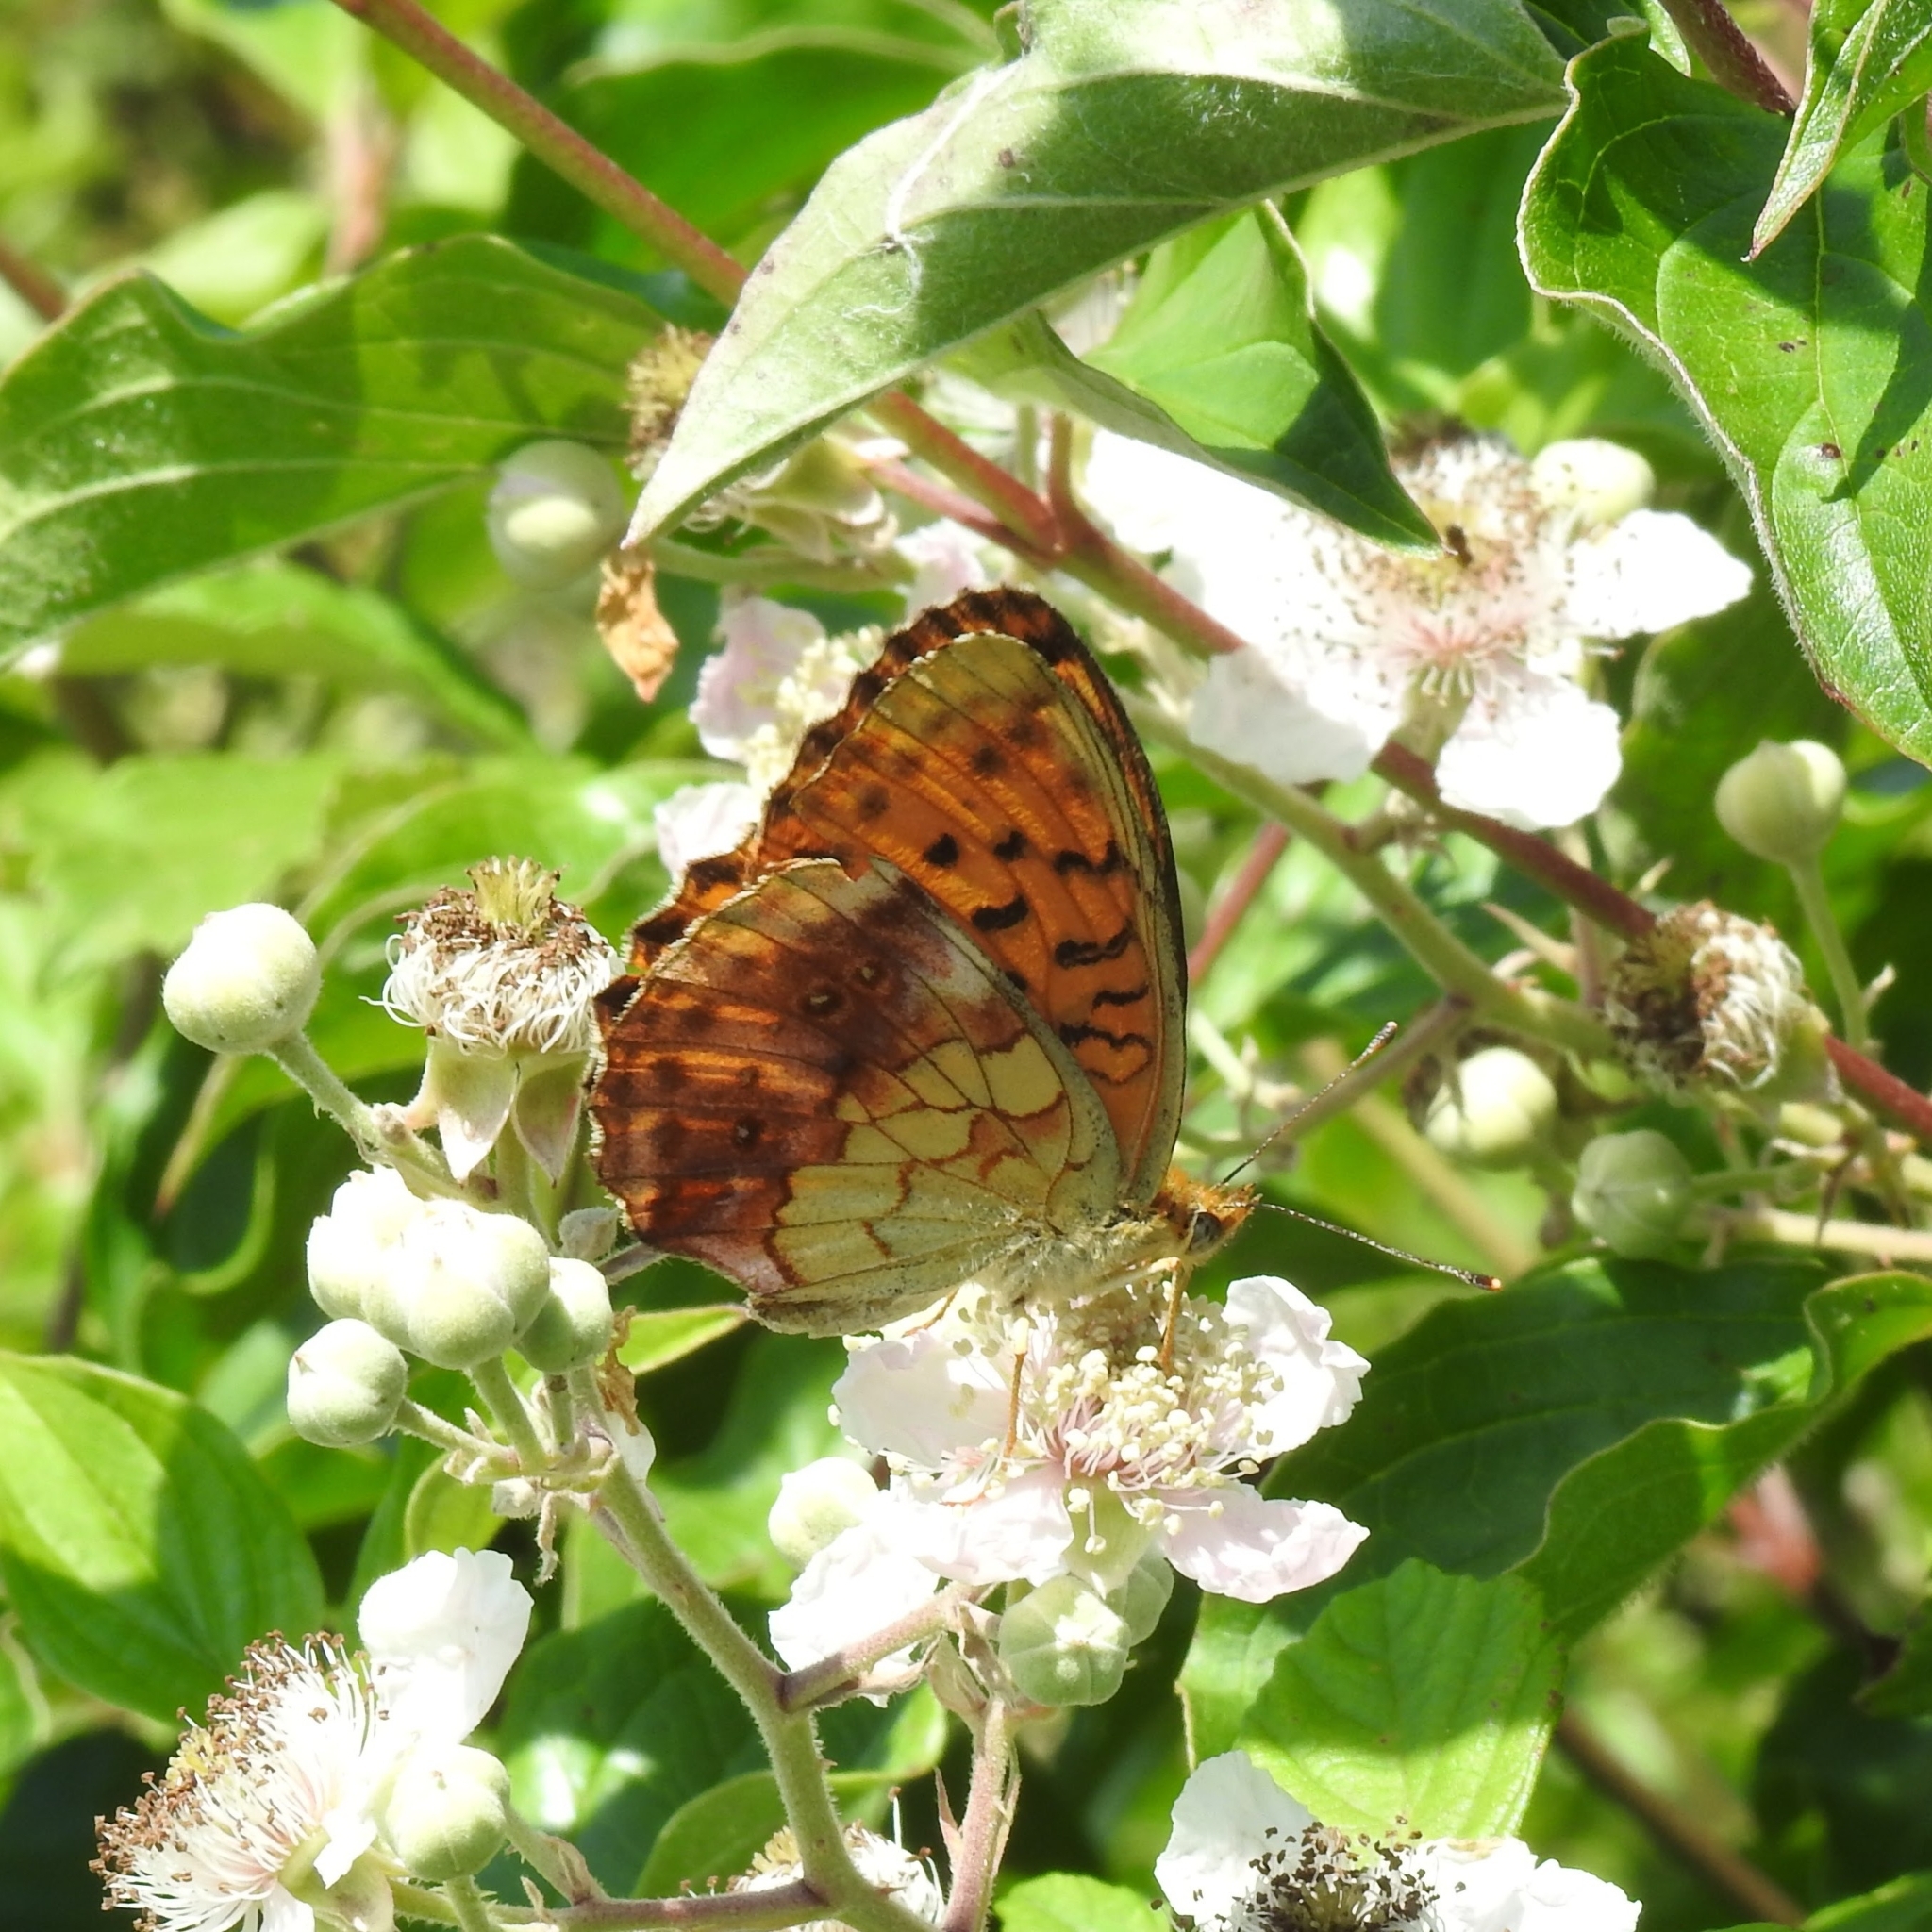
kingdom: Animalia
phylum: Arthropoda
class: Insecta
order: Lepidoptera
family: Nymphalidae
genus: Brenthis
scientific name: Brenthis daphne
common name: Marbled fritillary
